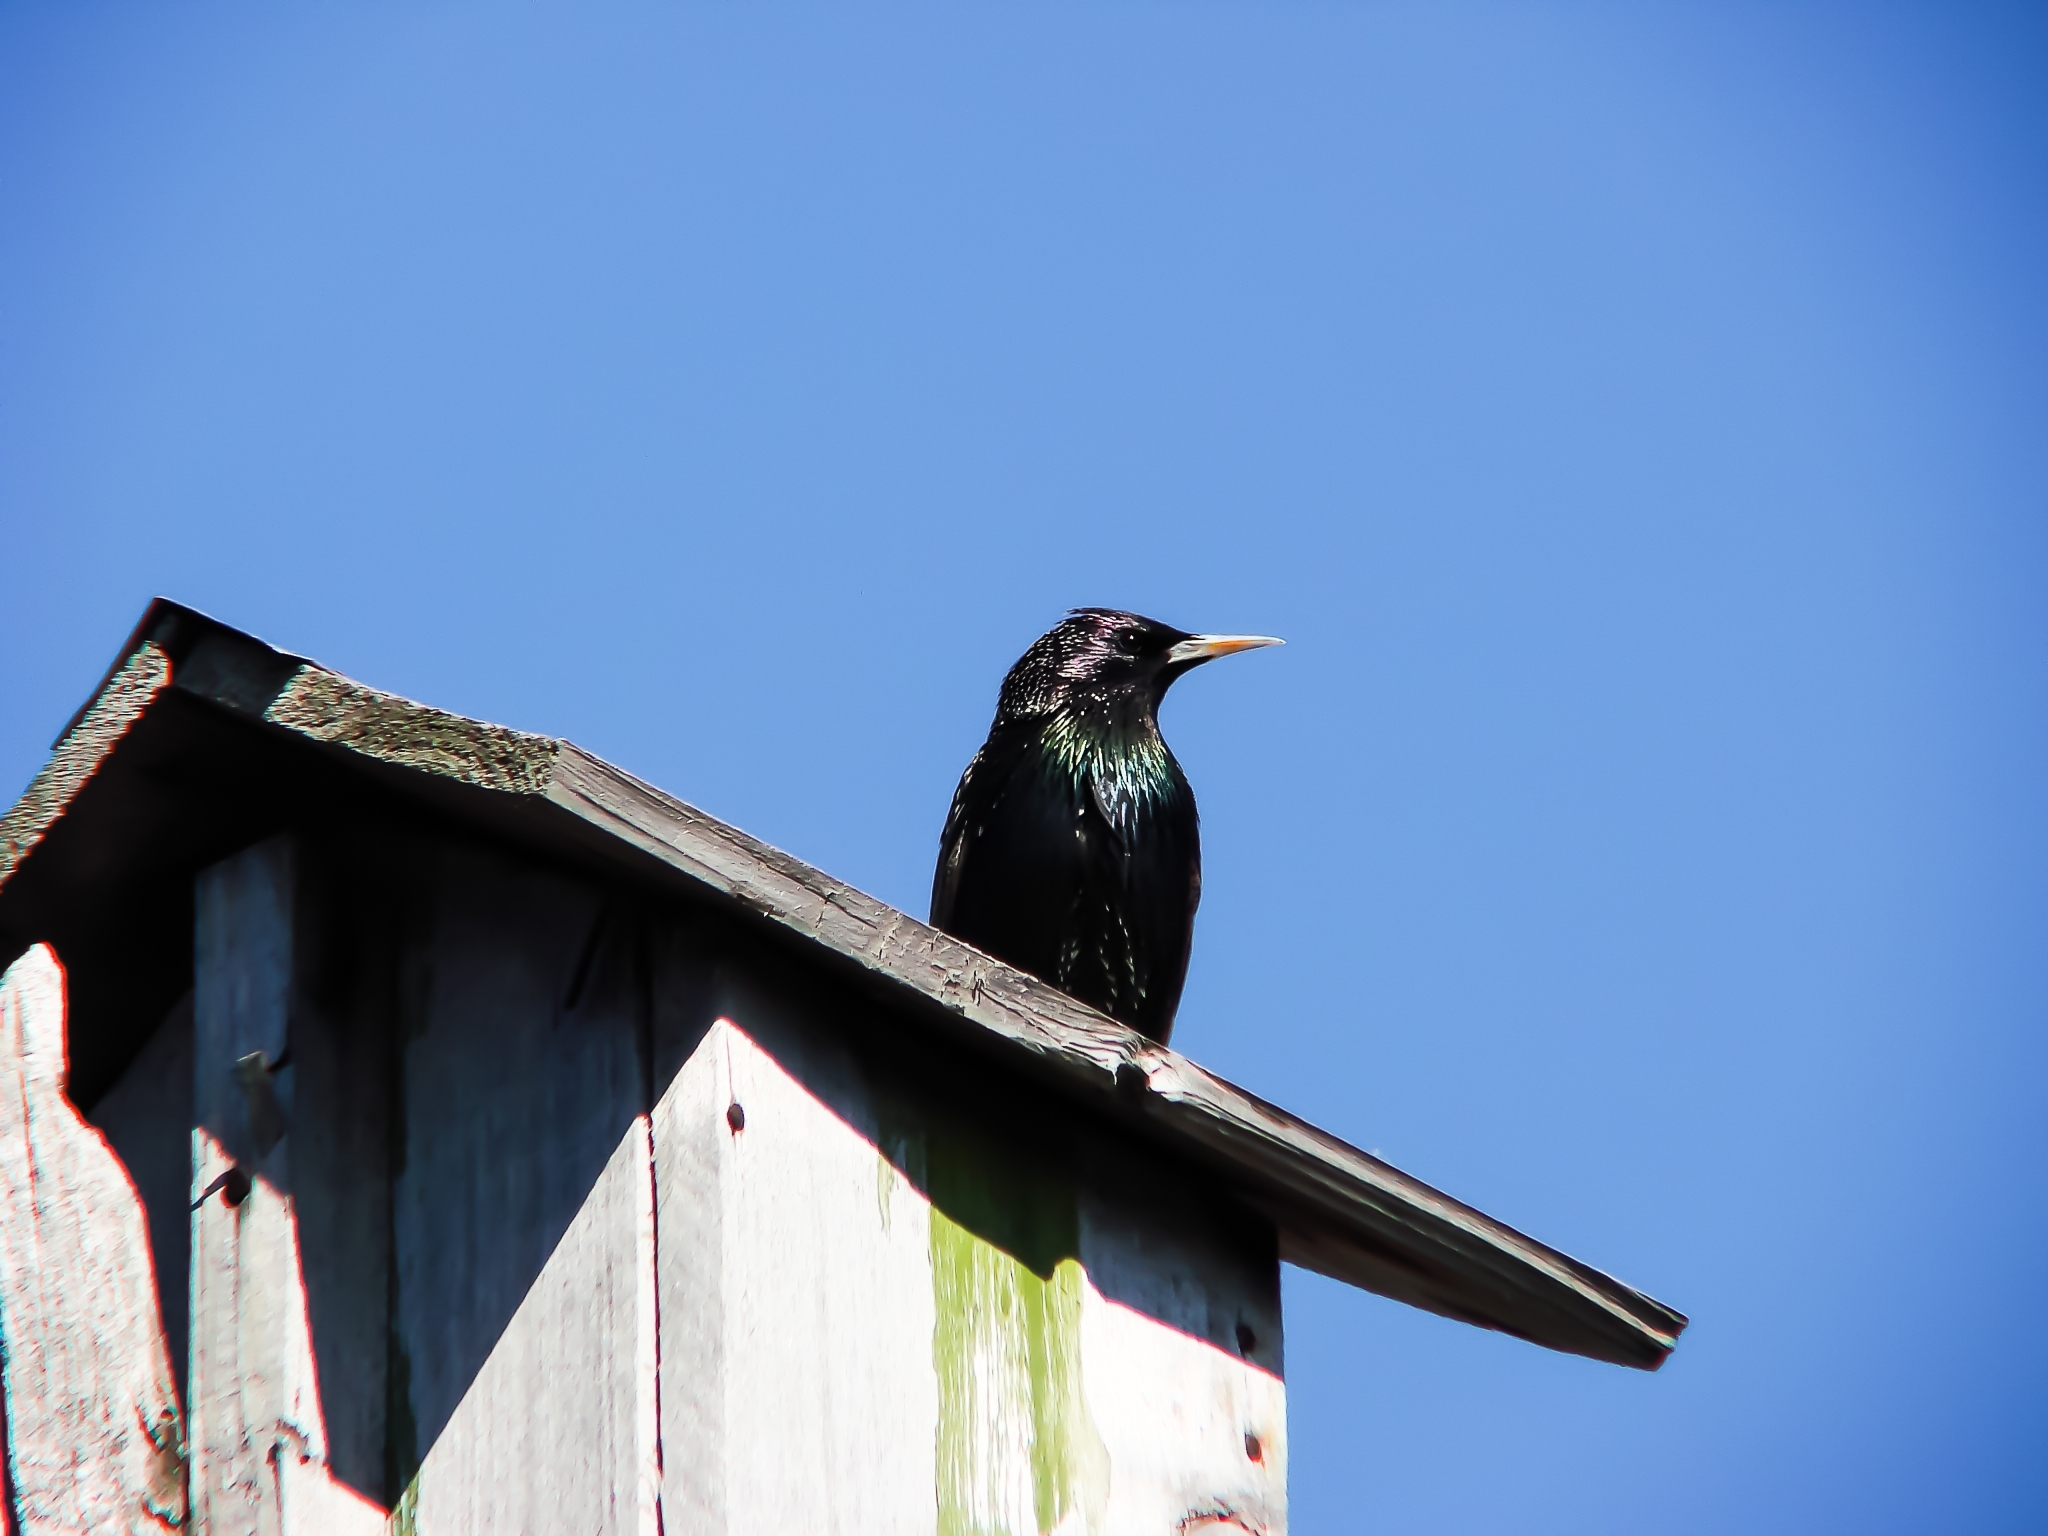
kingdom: Animalia
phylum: Chordata
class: Aves
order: Passeriformes
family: Sturnidae
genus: Sturnus
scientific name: Sturnus vulgaris
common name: Common starling
